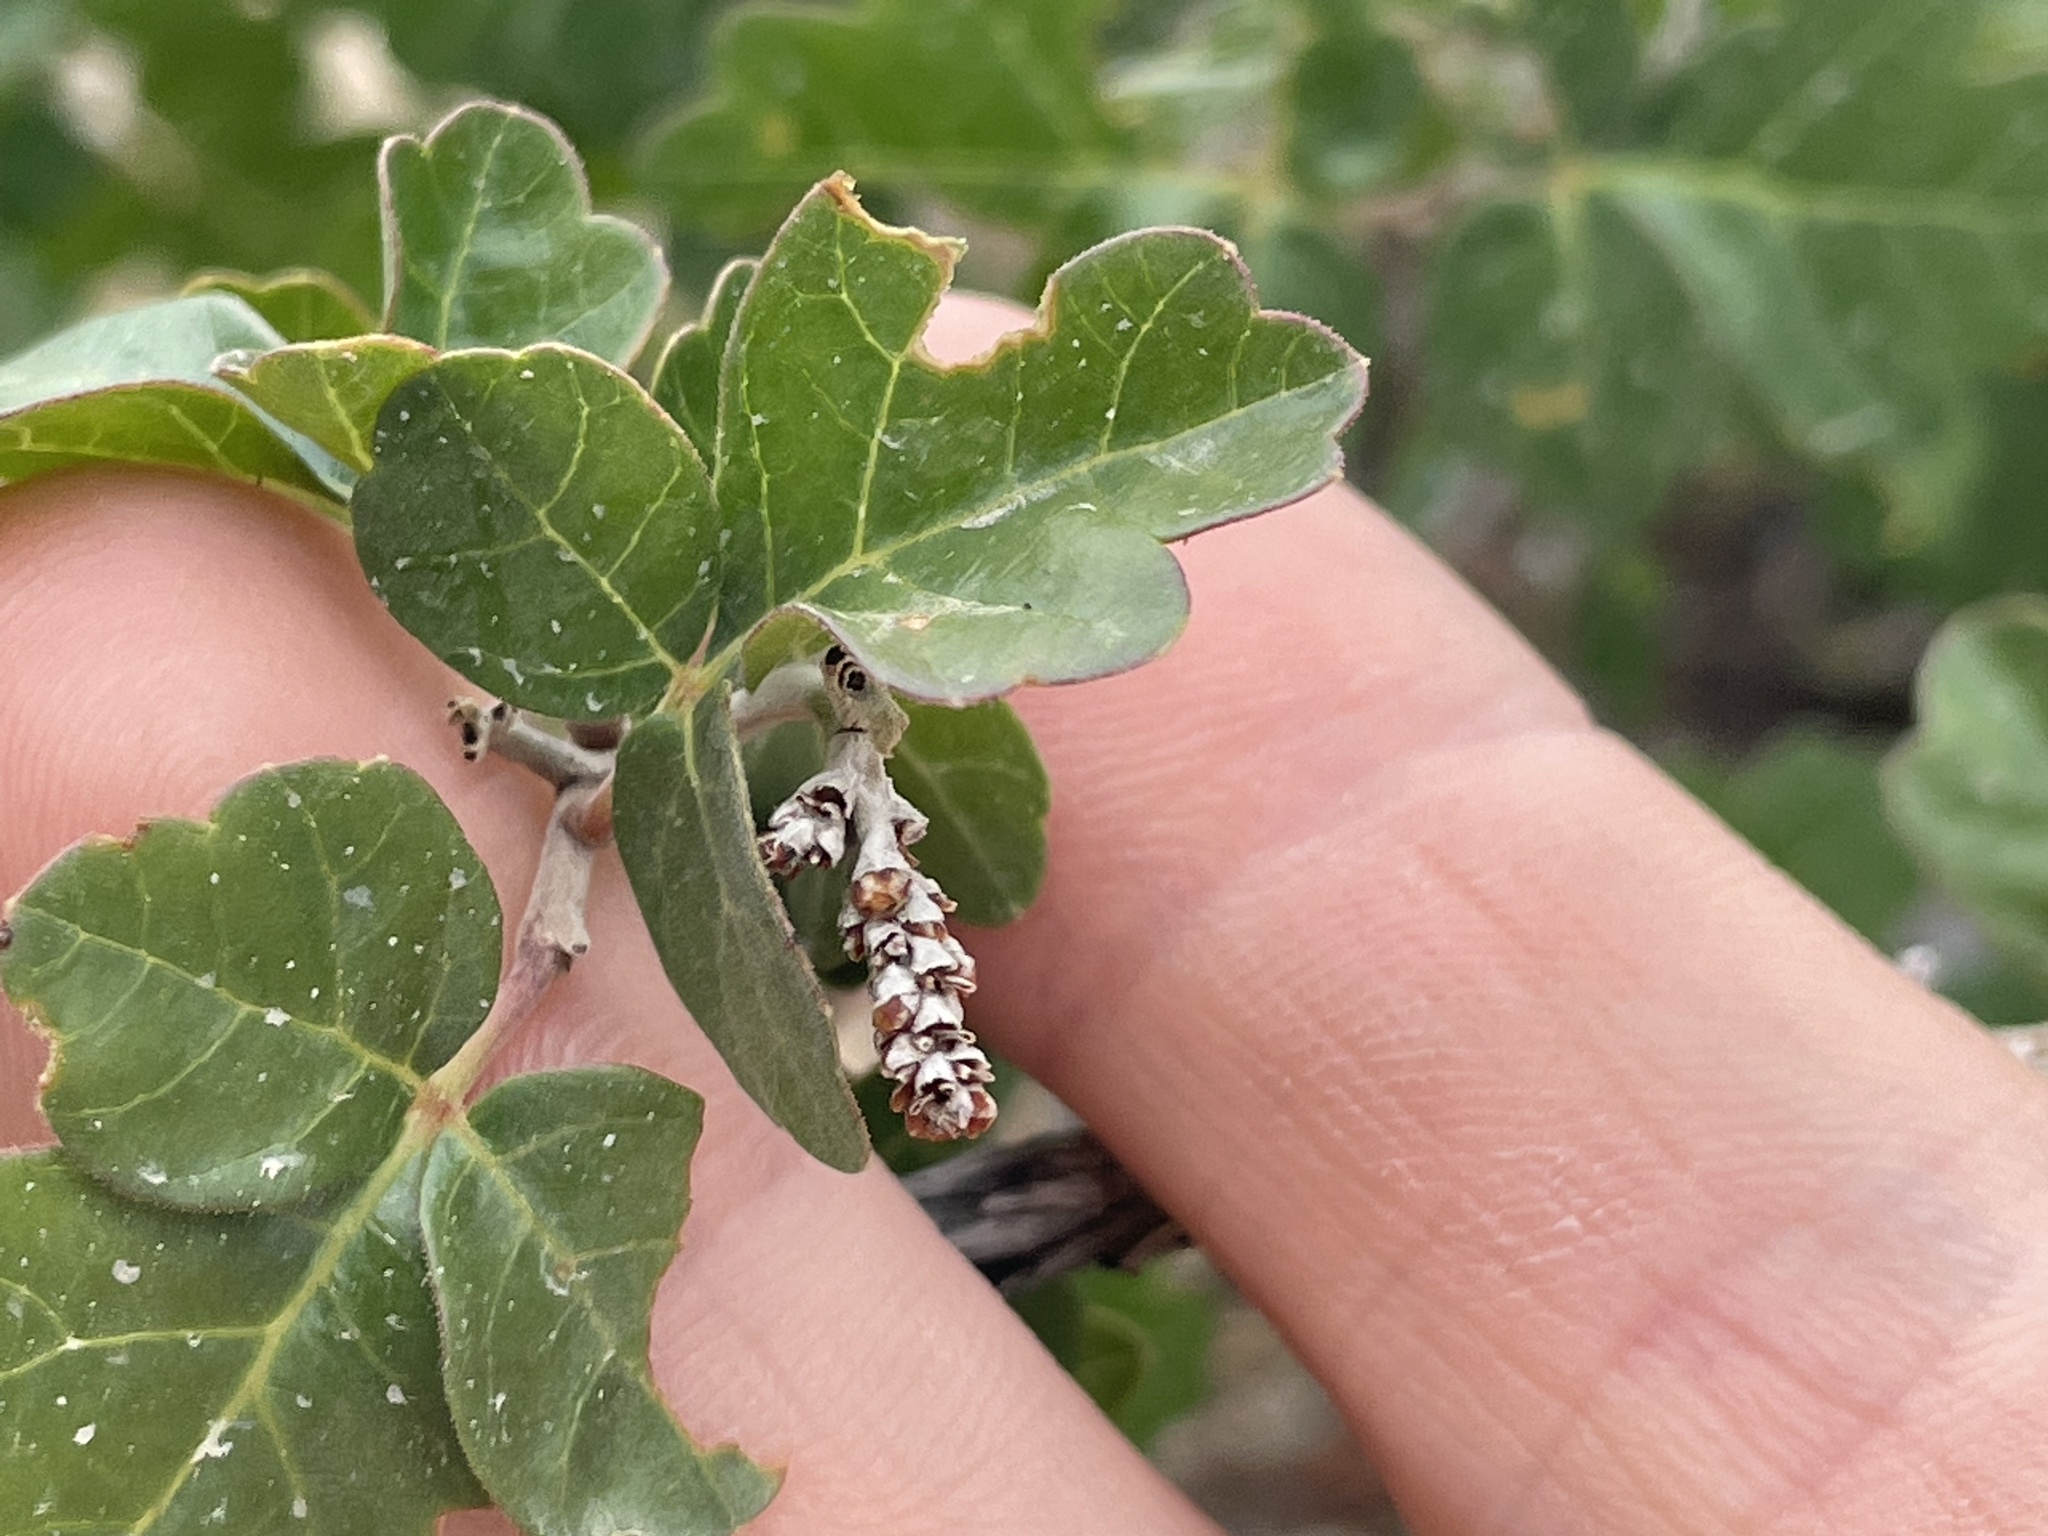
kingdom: Plantae
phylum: Tracheophyta
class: Magnoliopsida
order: Sapindales
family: Anacardiaceae
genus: Rhus
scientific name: Rhus trilobata
